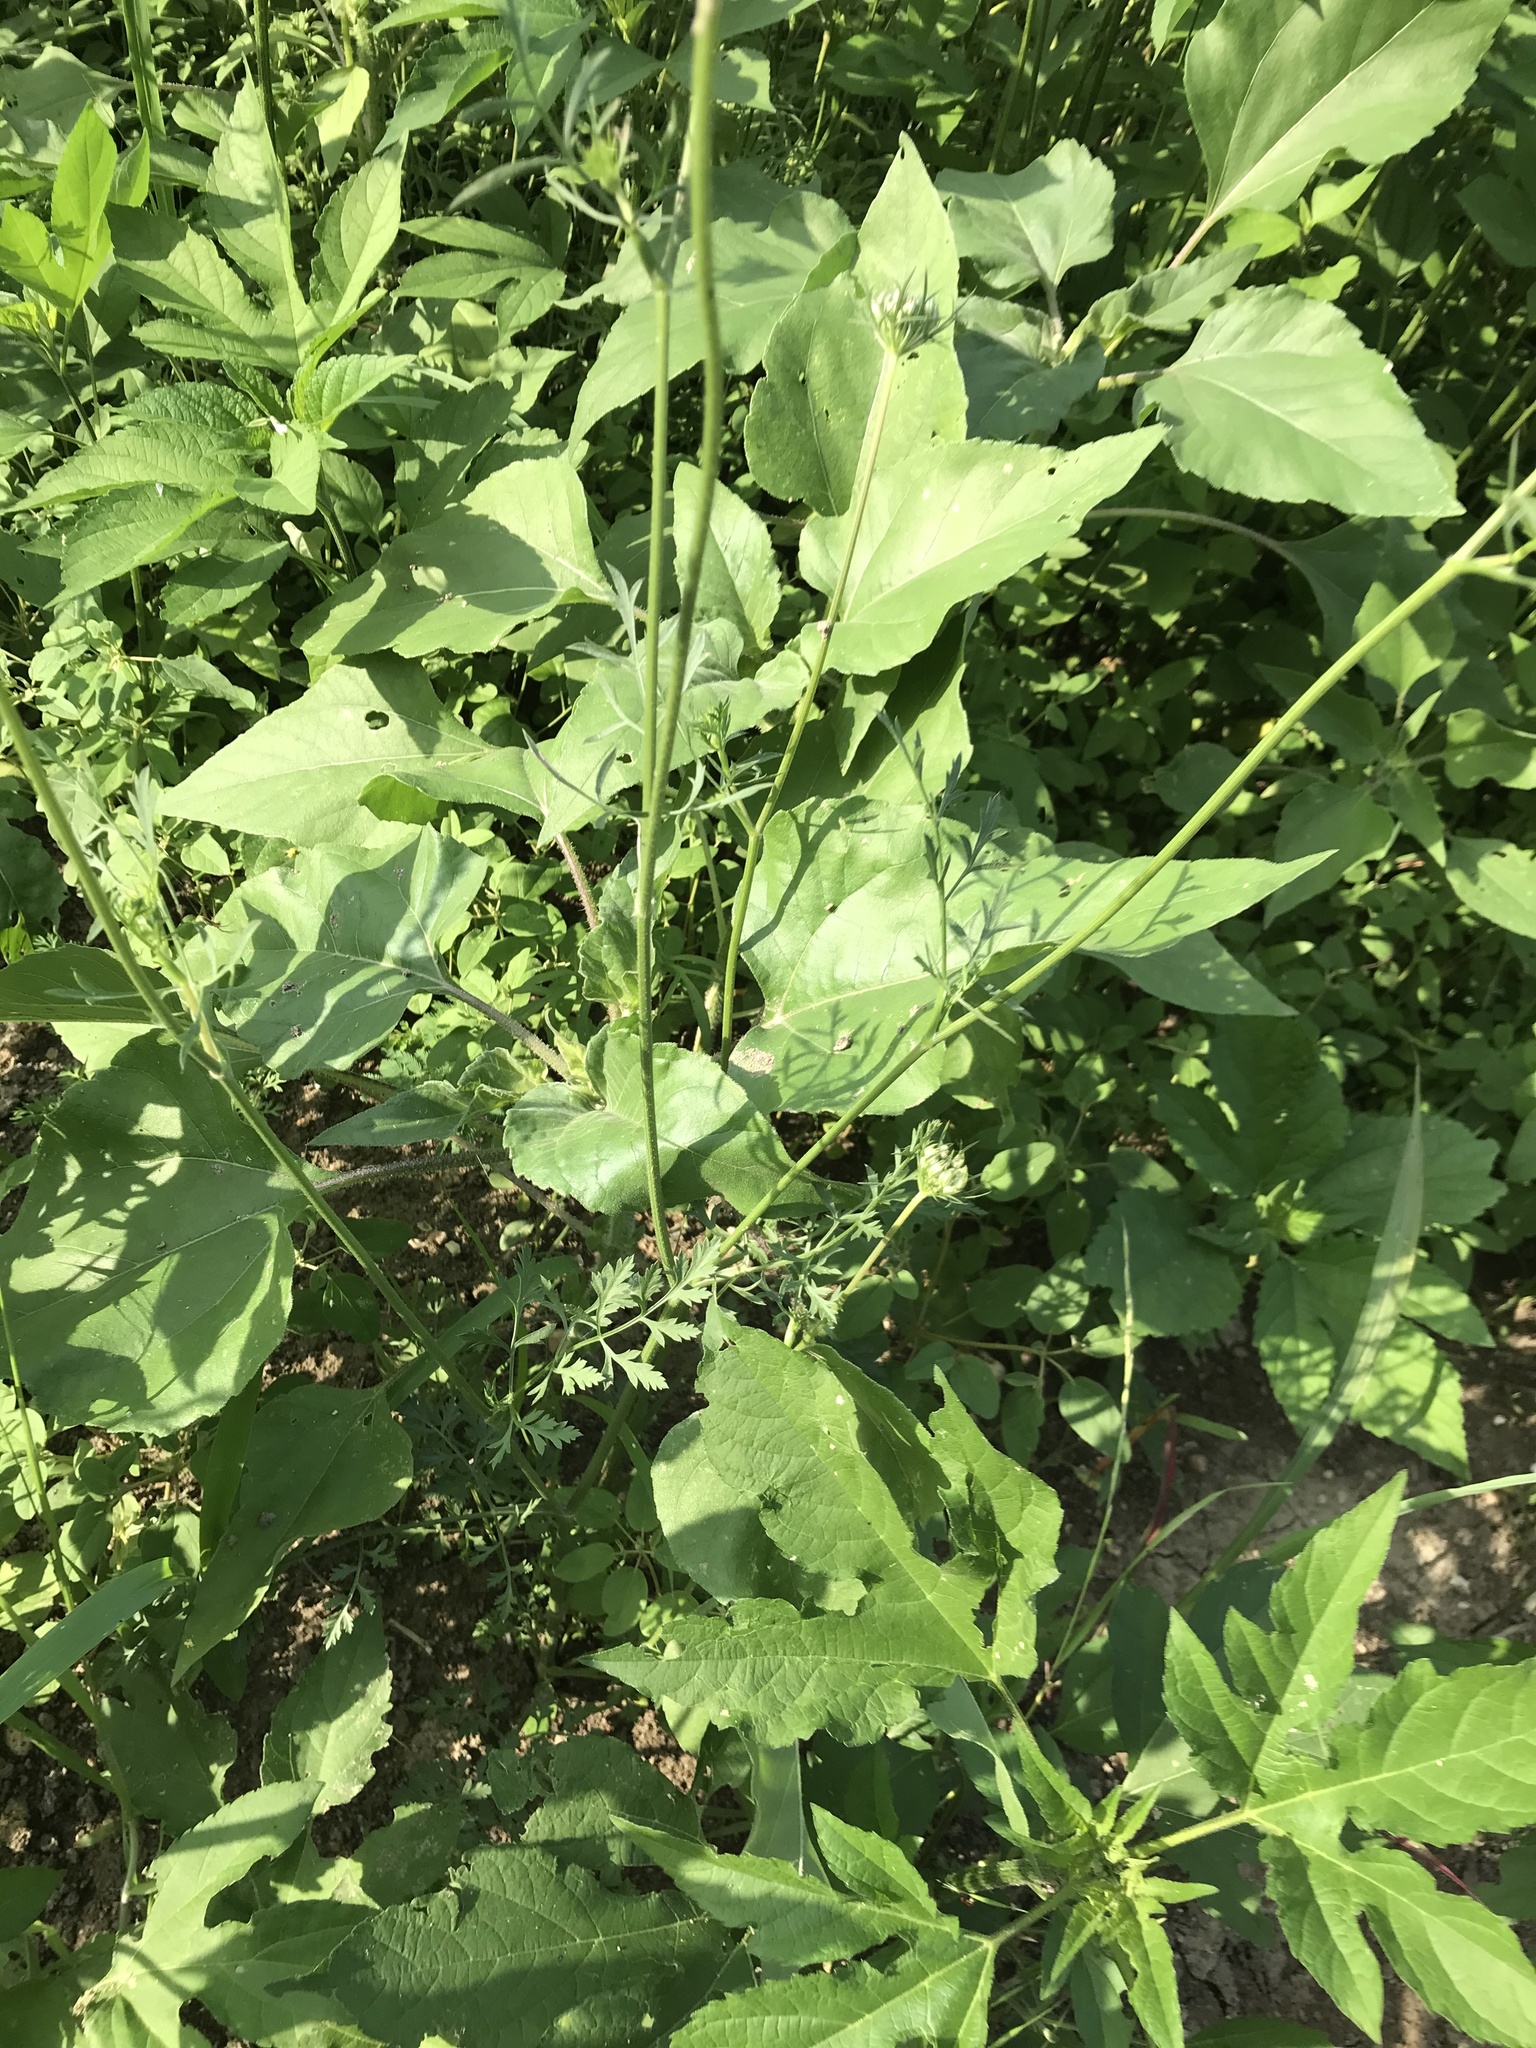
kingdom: Plantae
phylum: Tracheophyta
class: Magnoliopsida
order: Apiales
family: Apiaceae
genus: Daucus
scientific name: Daucus carota
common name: Wild carrot
